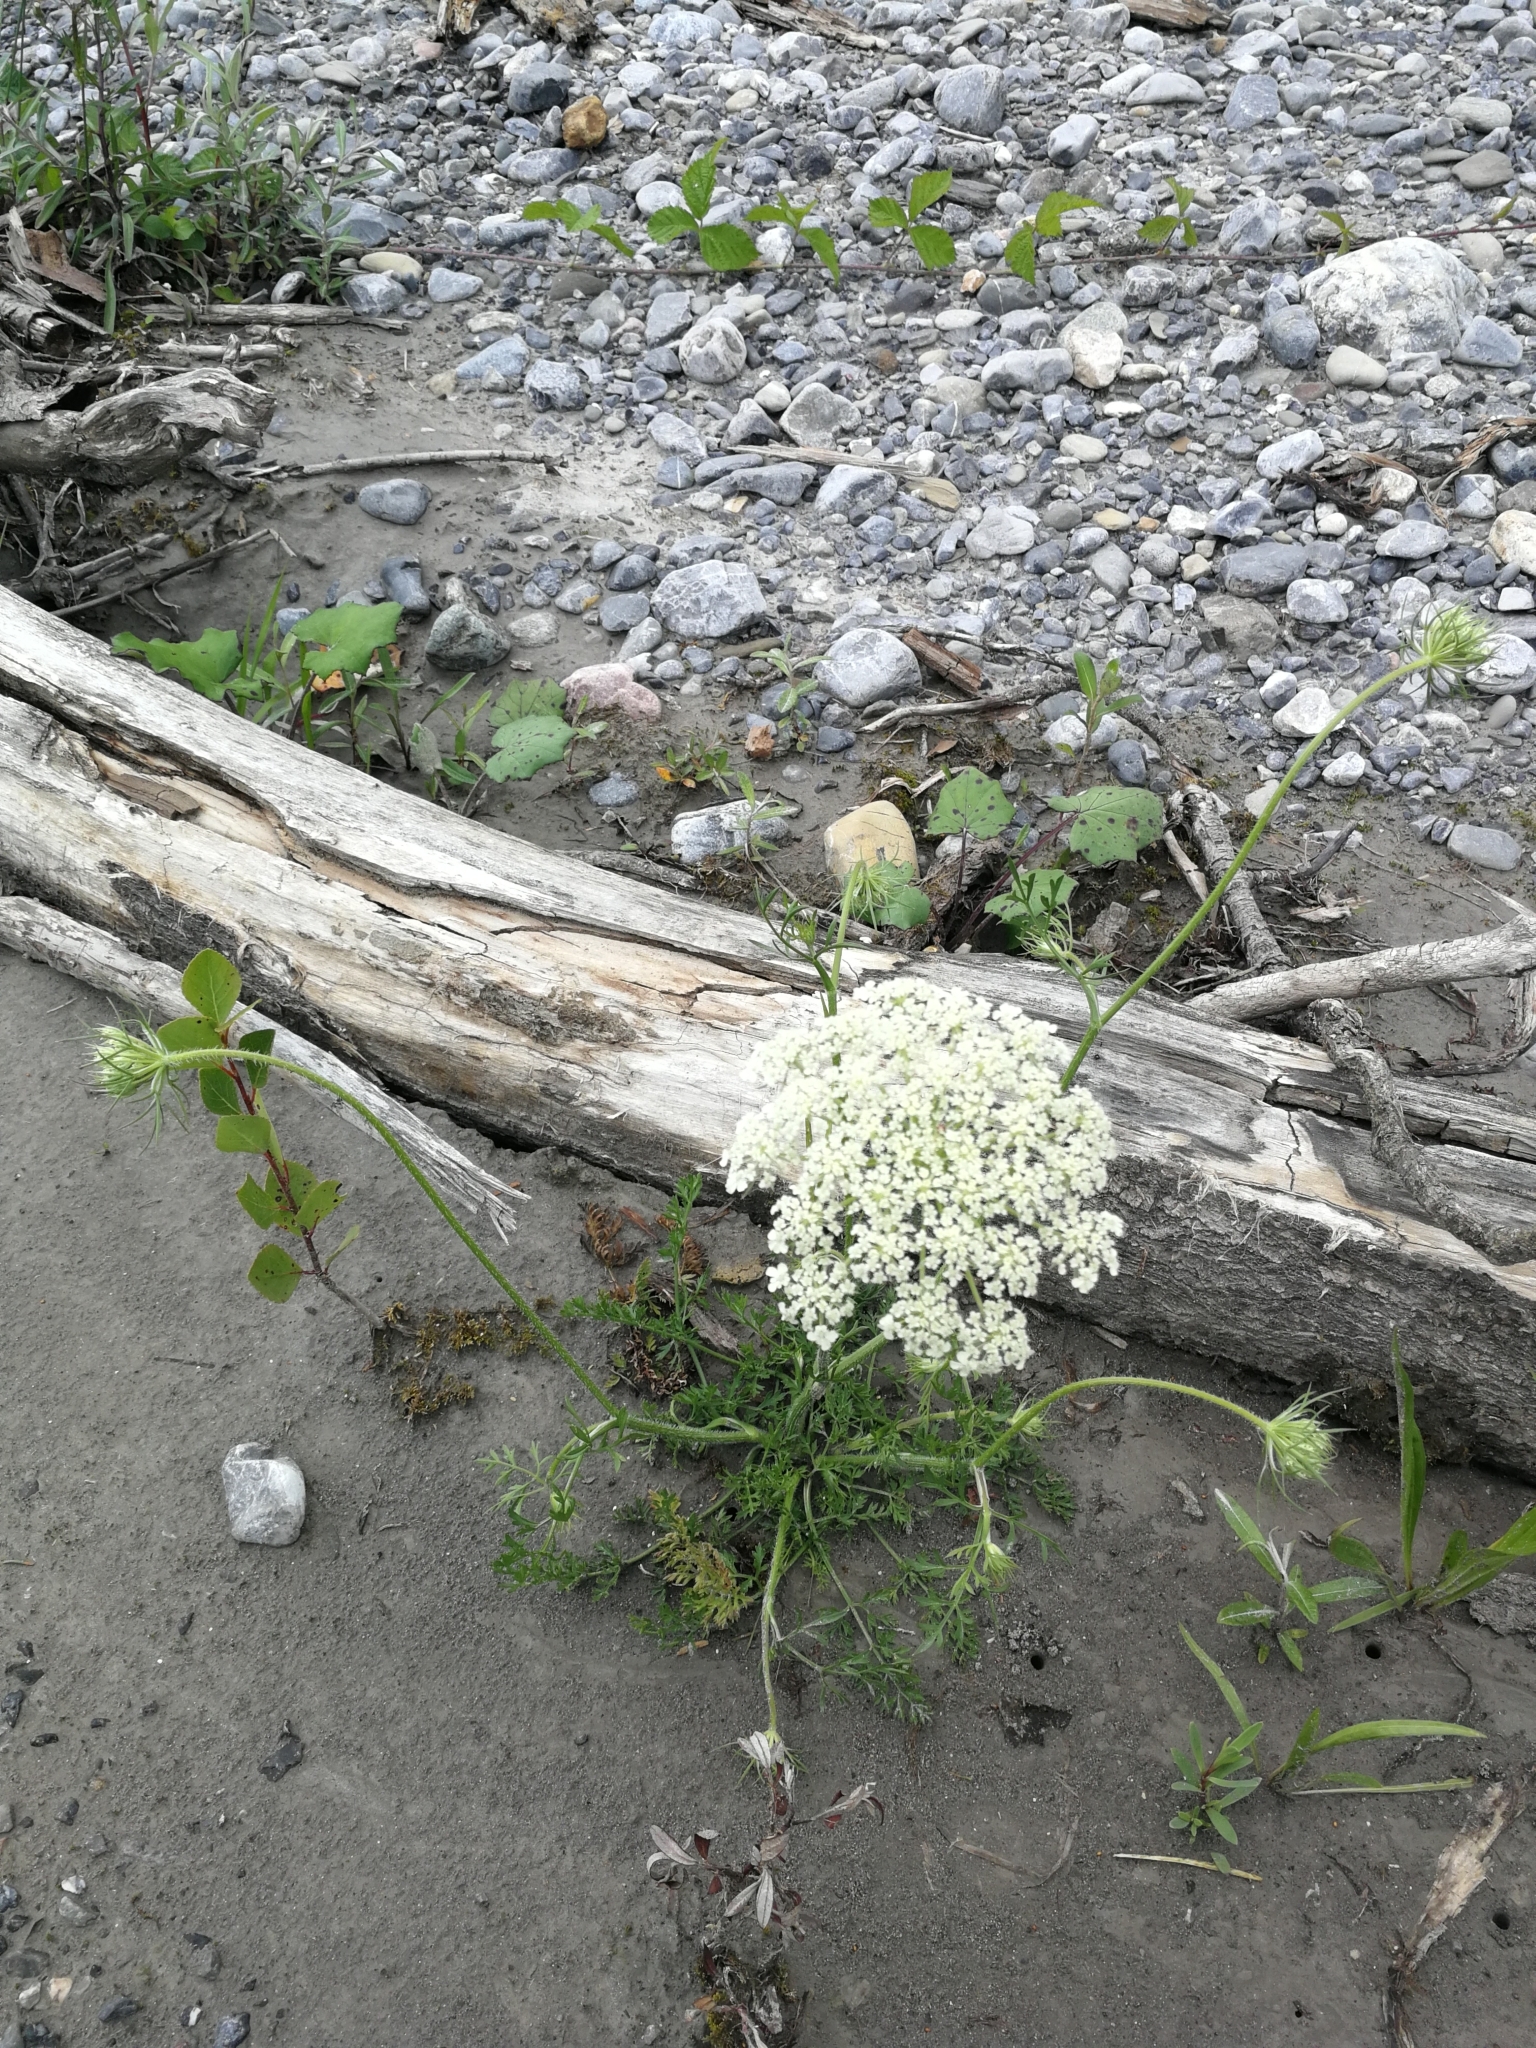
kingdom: Plantae
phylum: Tracheophyta
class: Magnoliopsida
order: Apiales
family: Apiaceae
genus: Daucus
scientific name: Daucus carota
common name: Wild carrot
